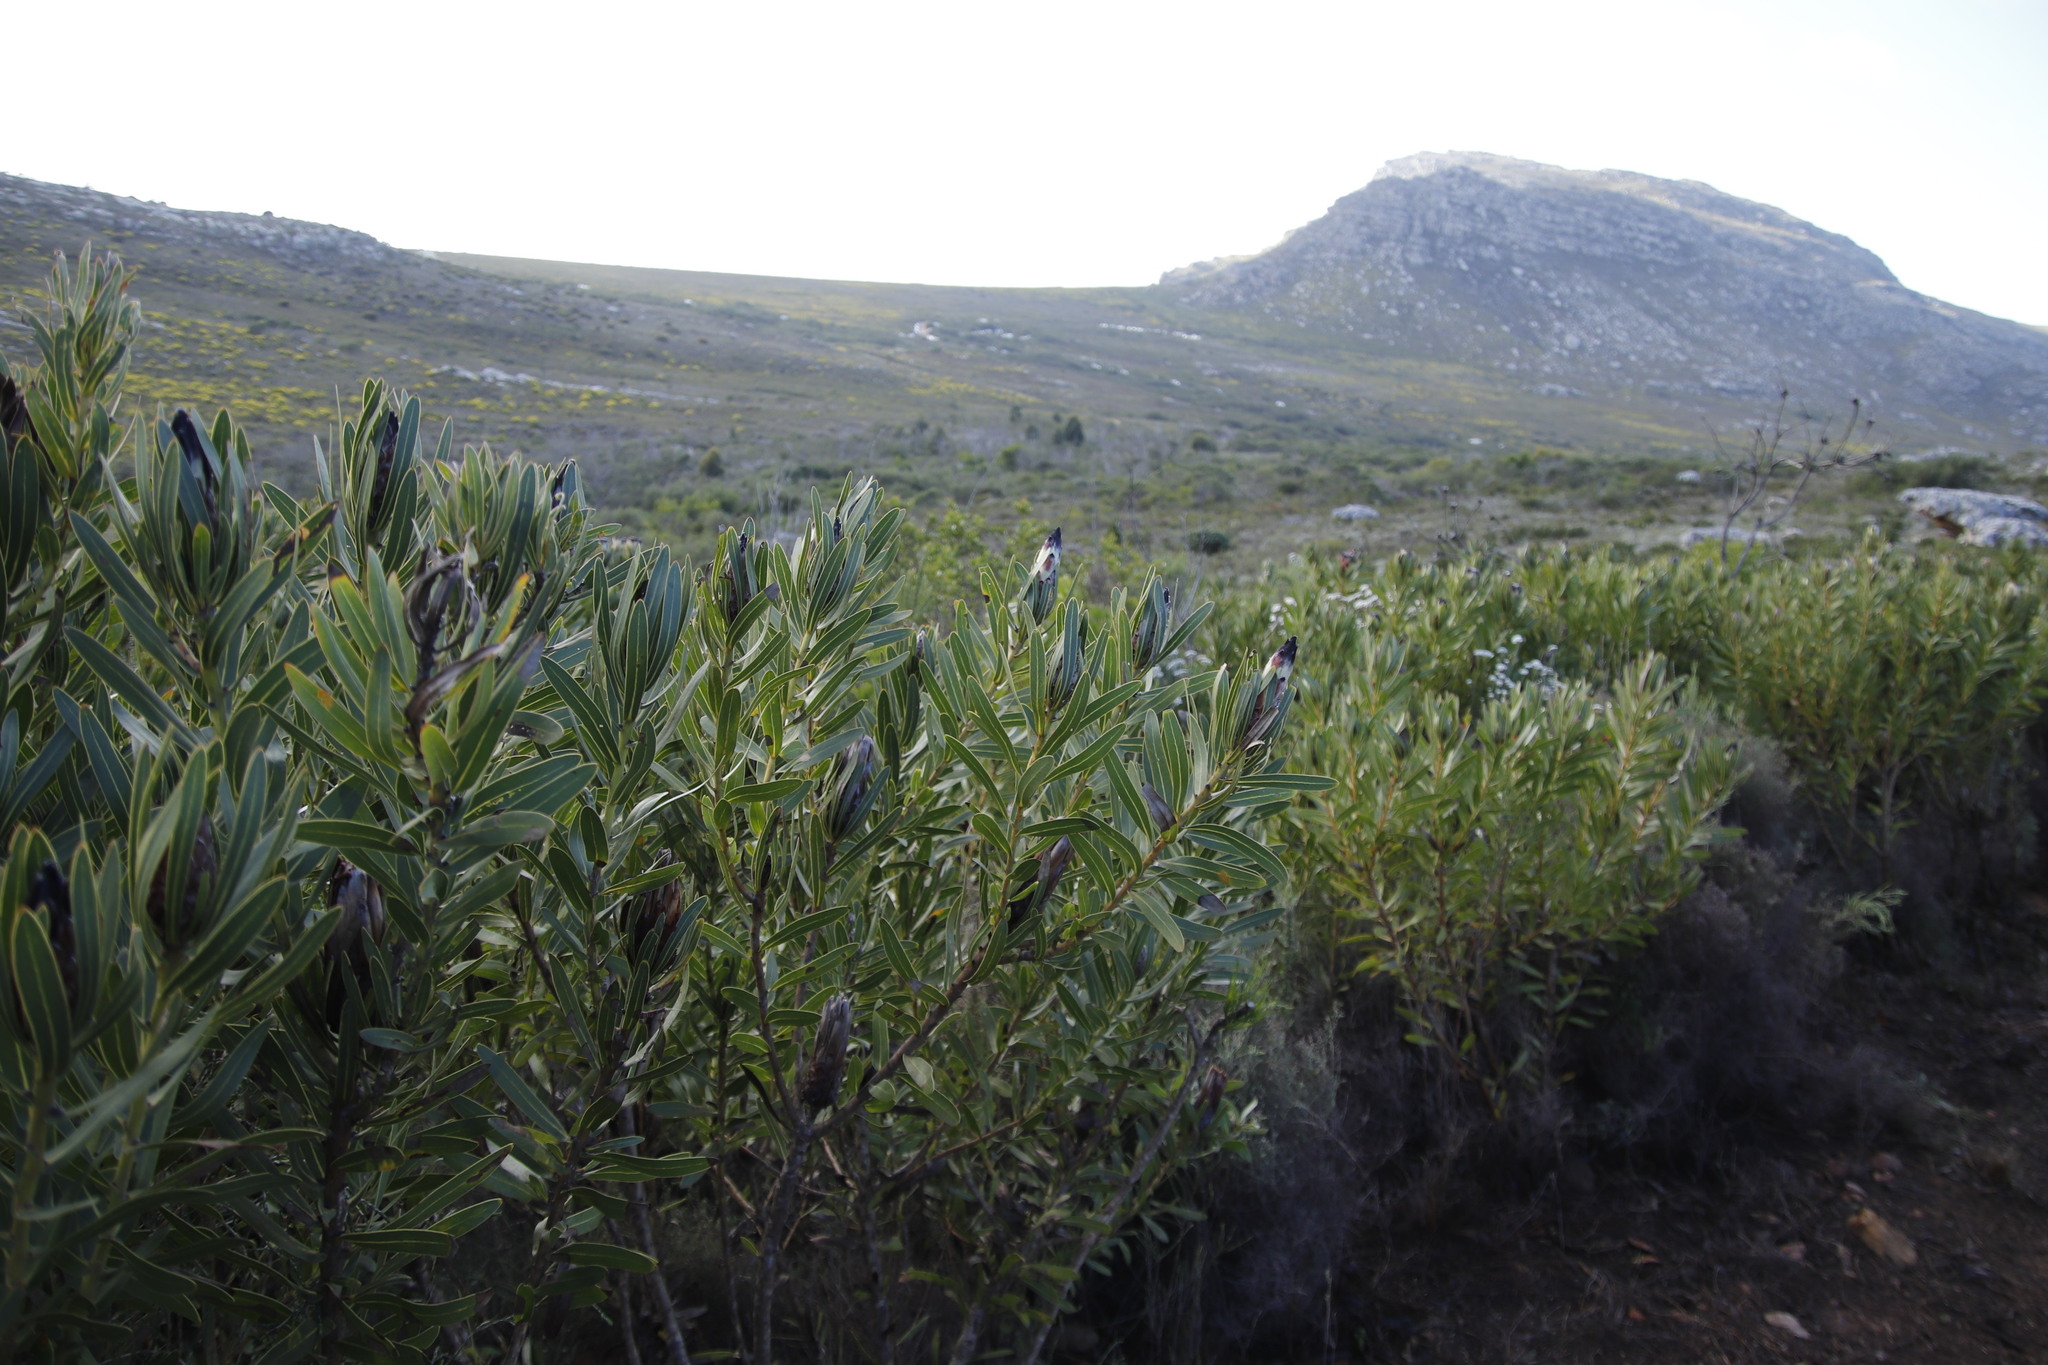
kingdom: Plantae
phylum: Tracheophyta
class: Magnoliopsida
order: Proteales
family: Proteaceae
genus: Protea
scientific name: Protea lepidocarpodendron
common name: Black-bearded protea
